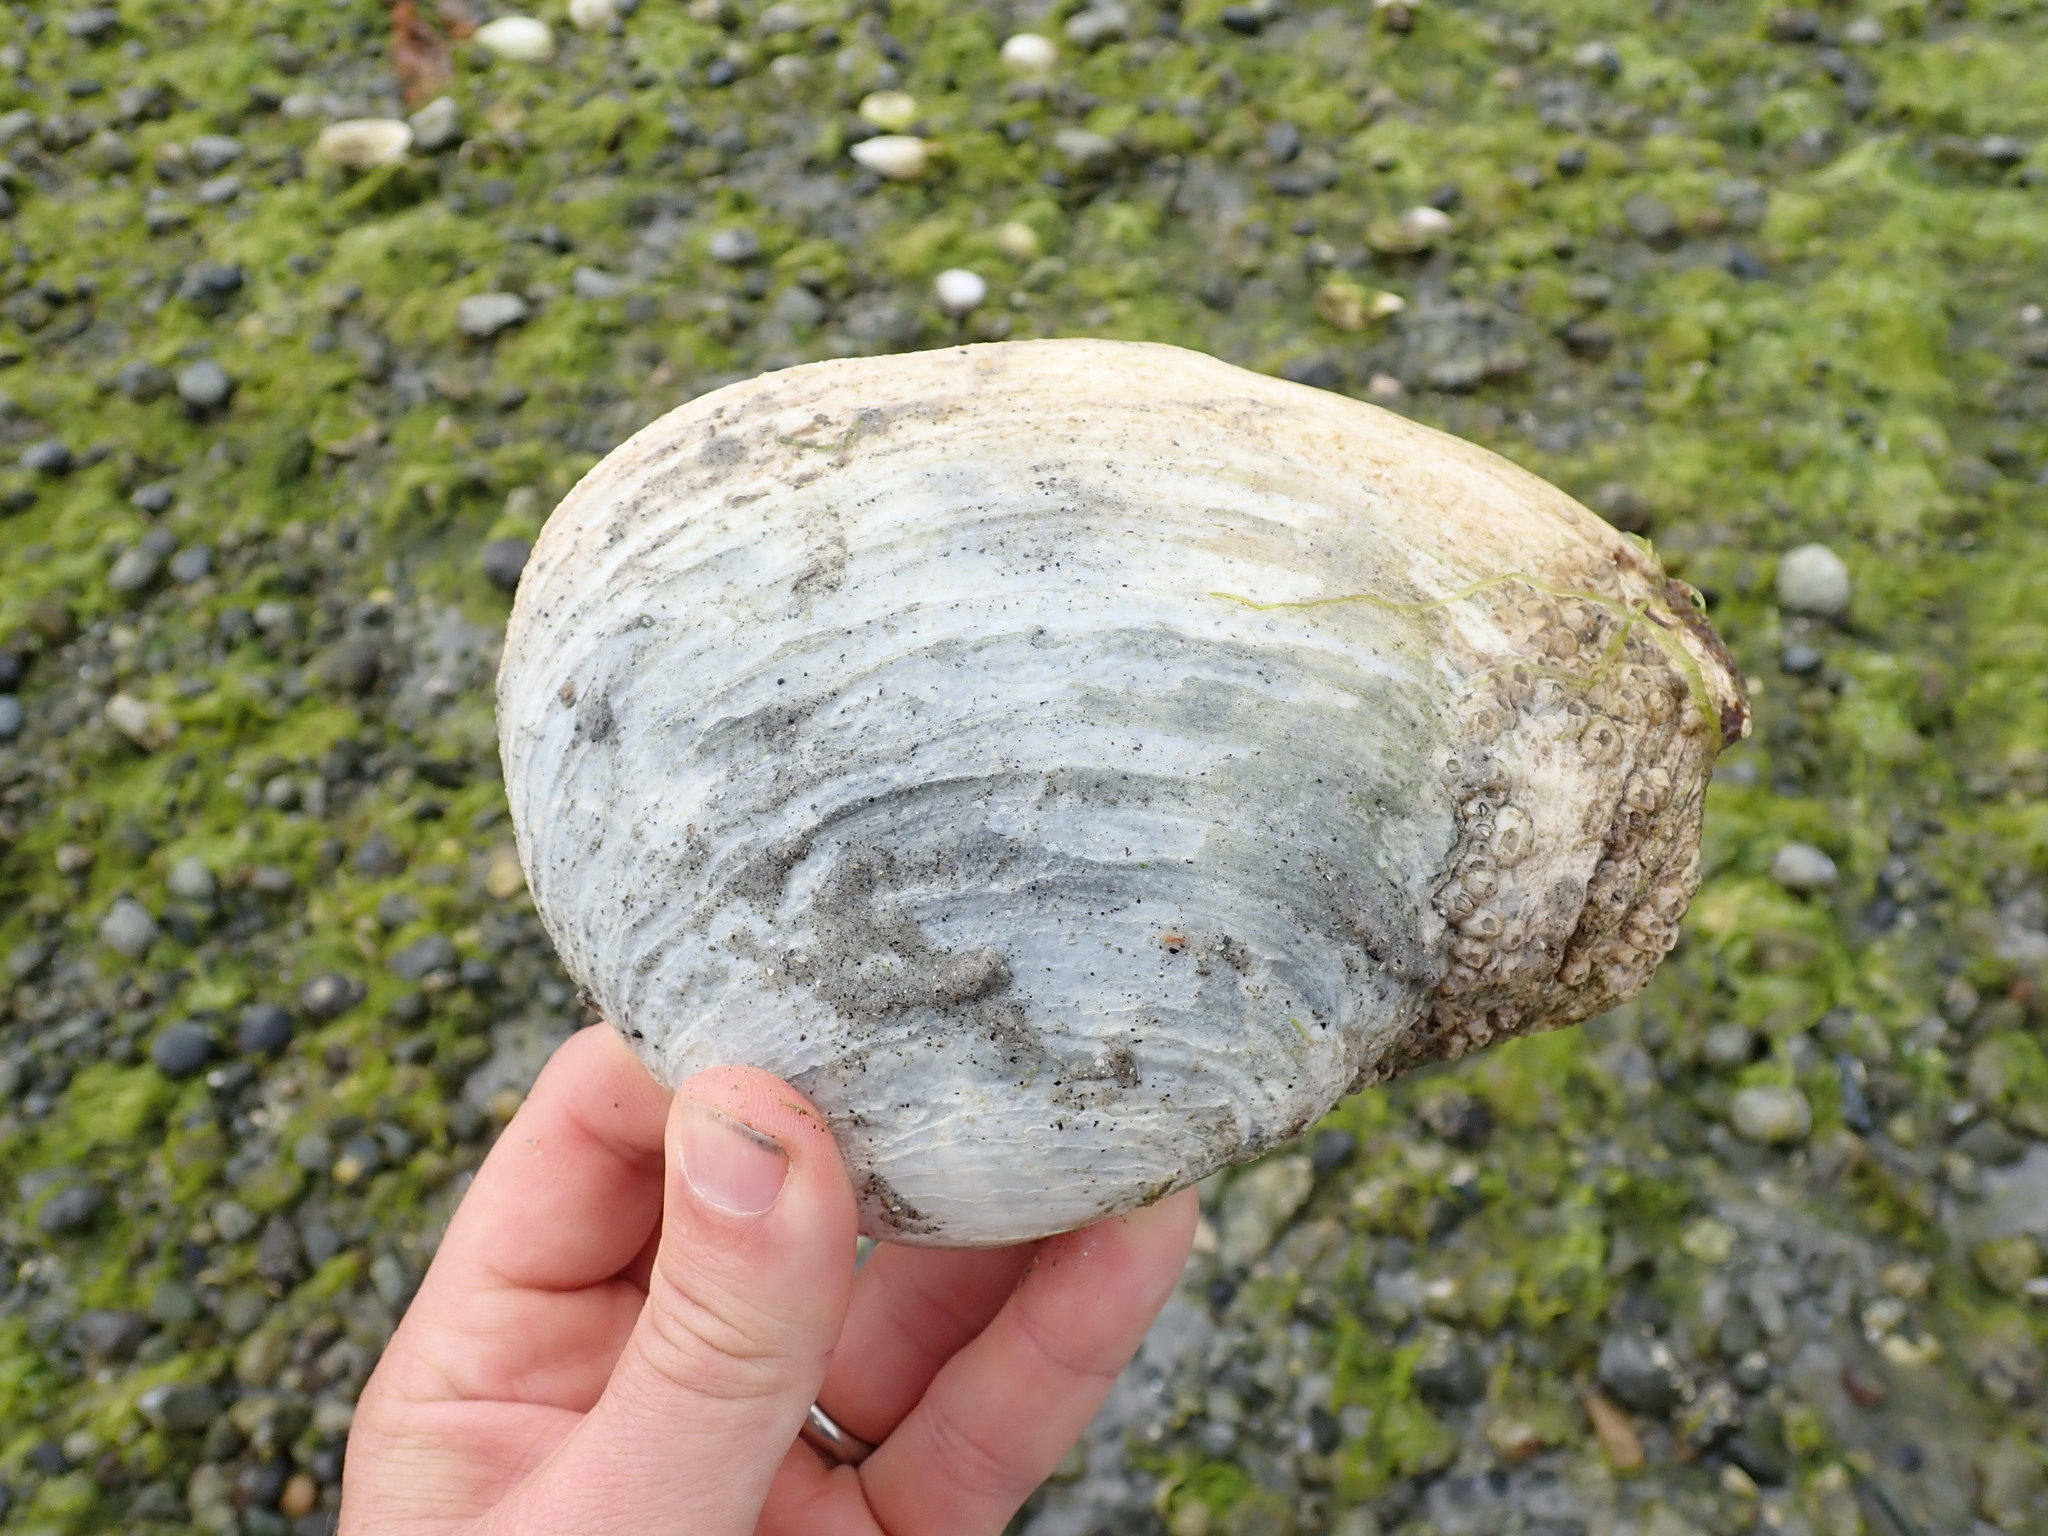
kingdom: Animalia
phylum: Mollusca
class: Bivalvia
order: Venerida
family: Mactridae
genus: Tresus
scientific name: Tresus nuttallii
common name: Pacific gaper clam
